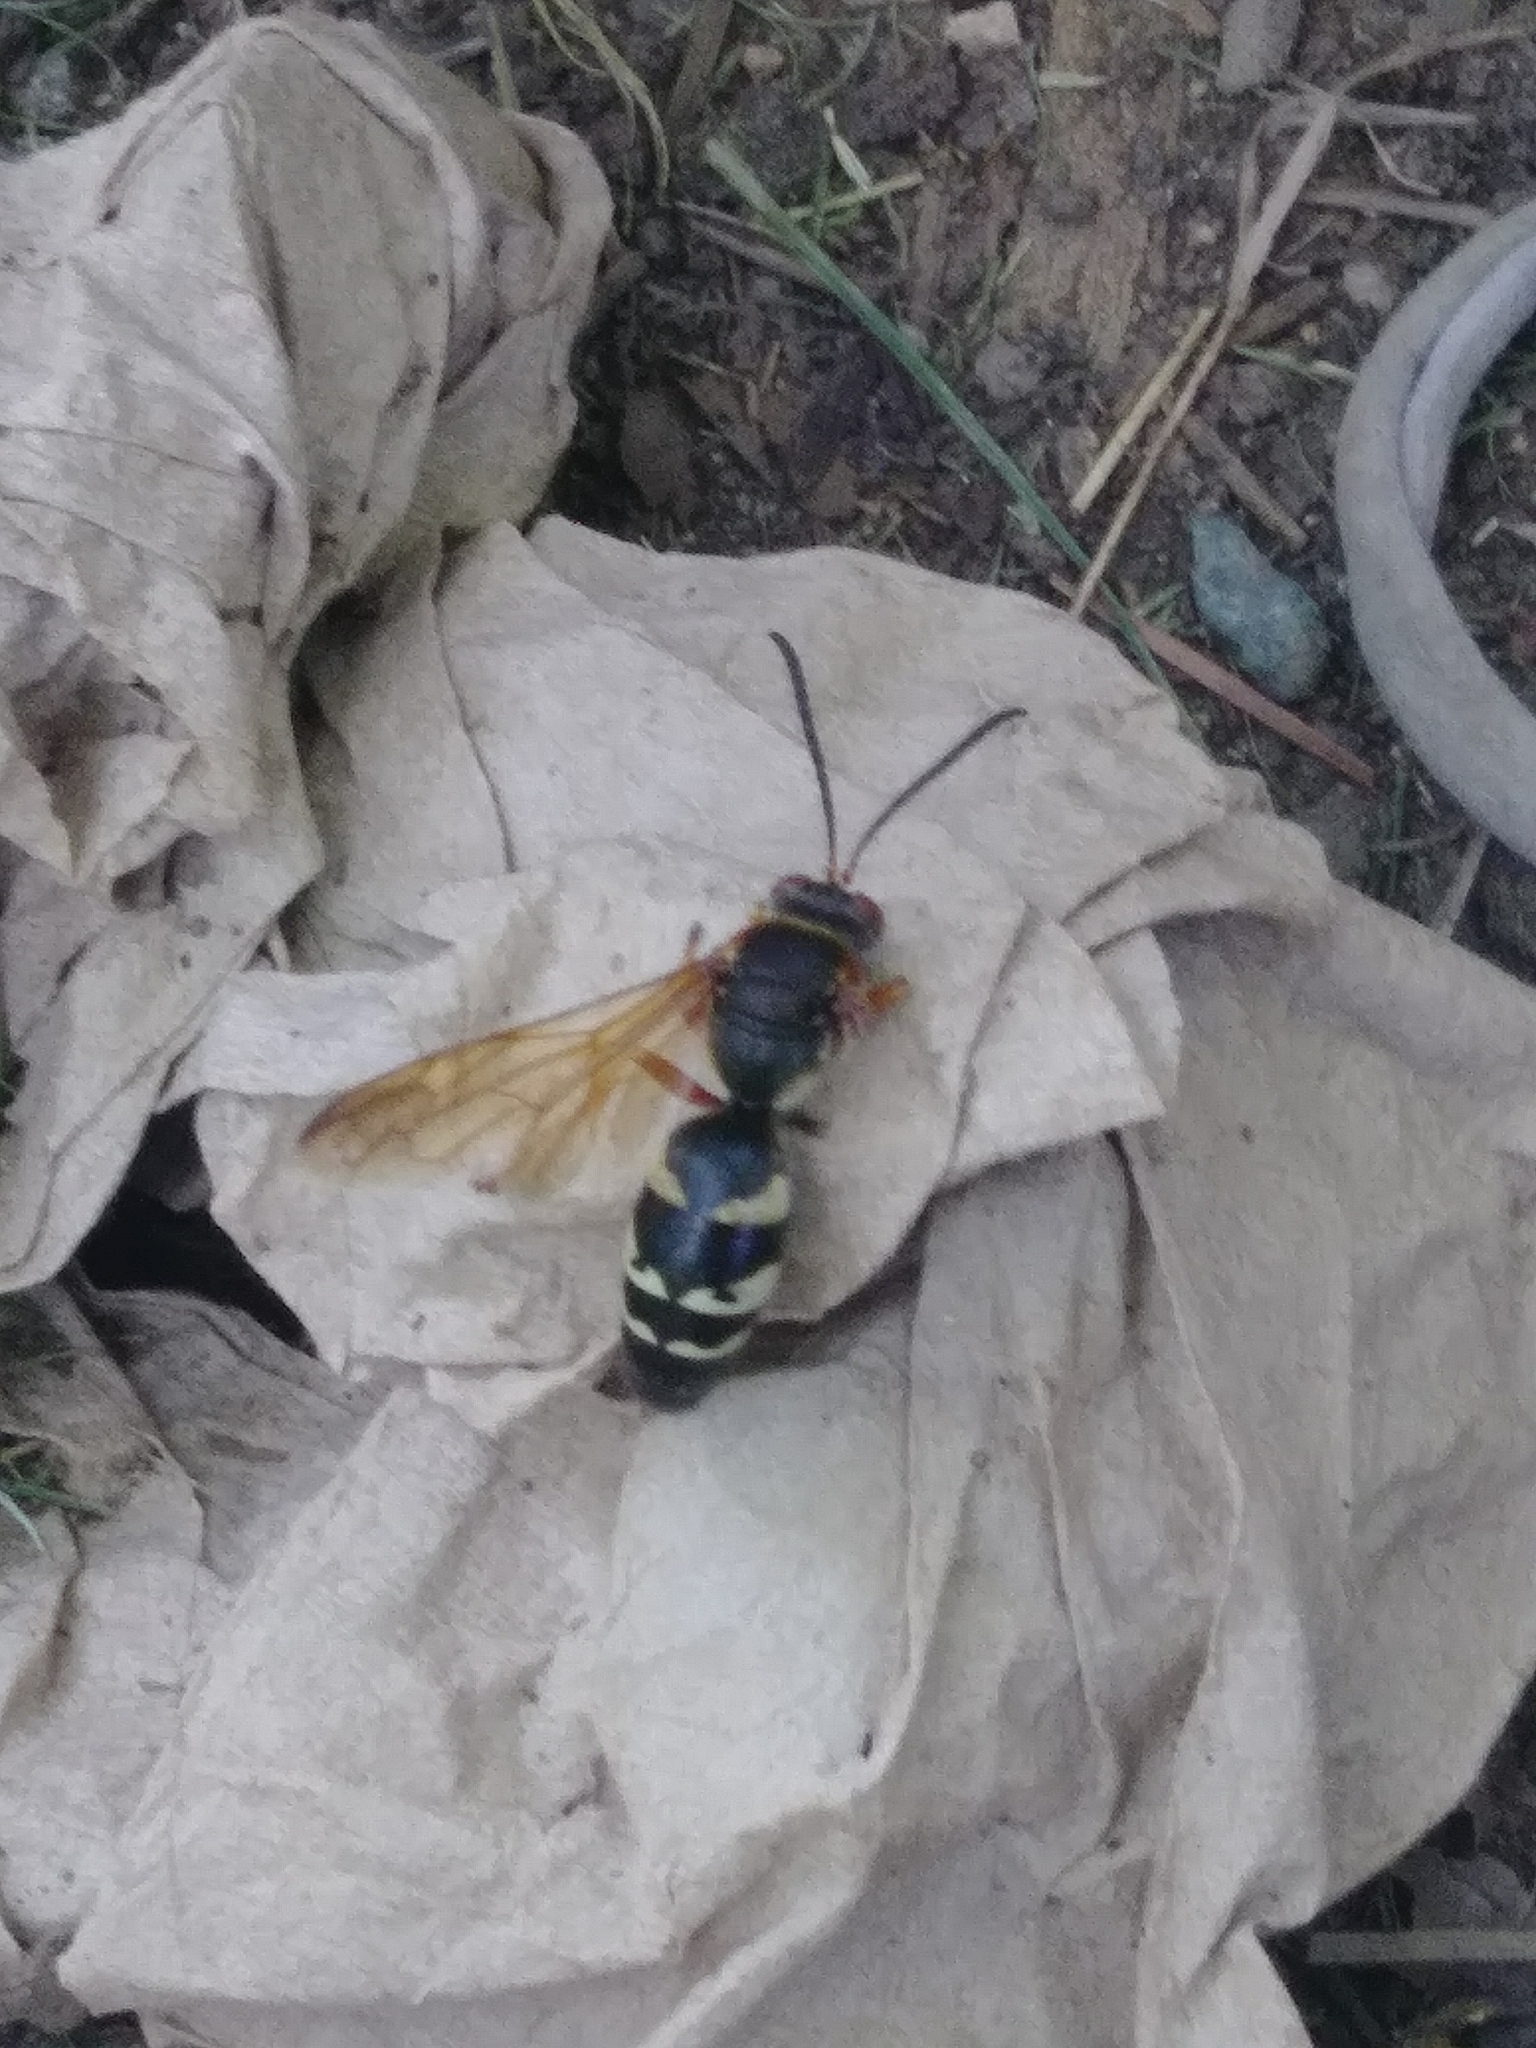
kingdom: Animalia
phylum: Arthropoda
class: Insecta
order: Hymenoptera
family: Crabronidae
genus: Sphecius
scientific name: Sphecius speciosus
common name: Cicada killer
